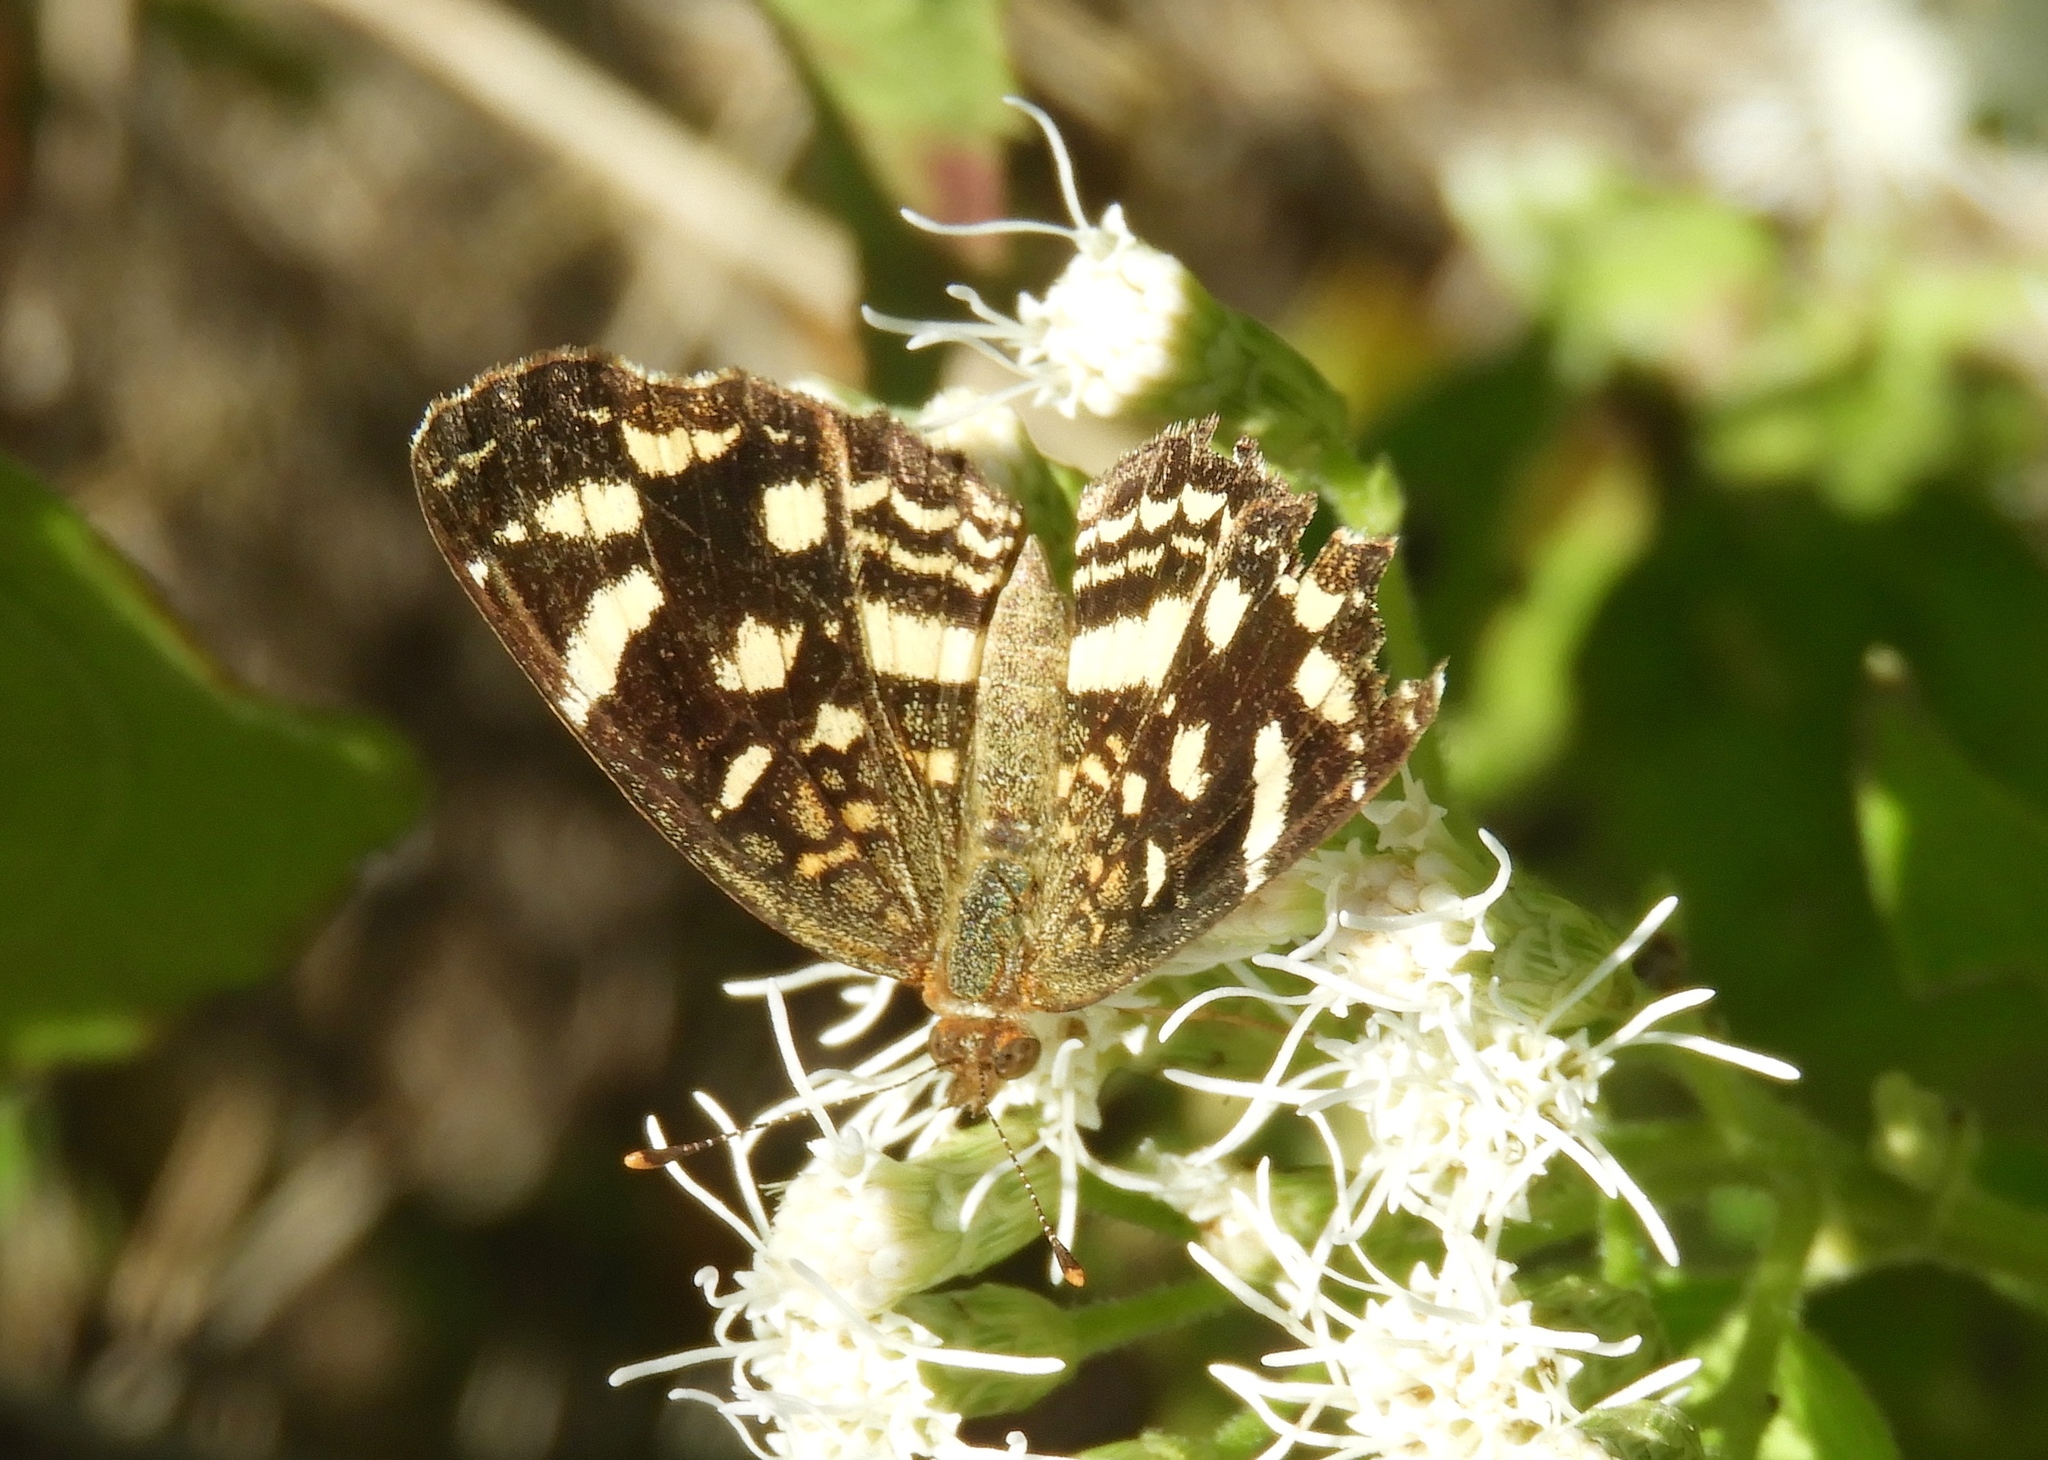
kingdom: Animalia
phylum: Arthropoda
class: Insecta
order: Lepidoptera
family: Nymphalidae
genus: Anthanassa
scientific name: Anthanassa tulcis
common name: Pale-banded crescent
